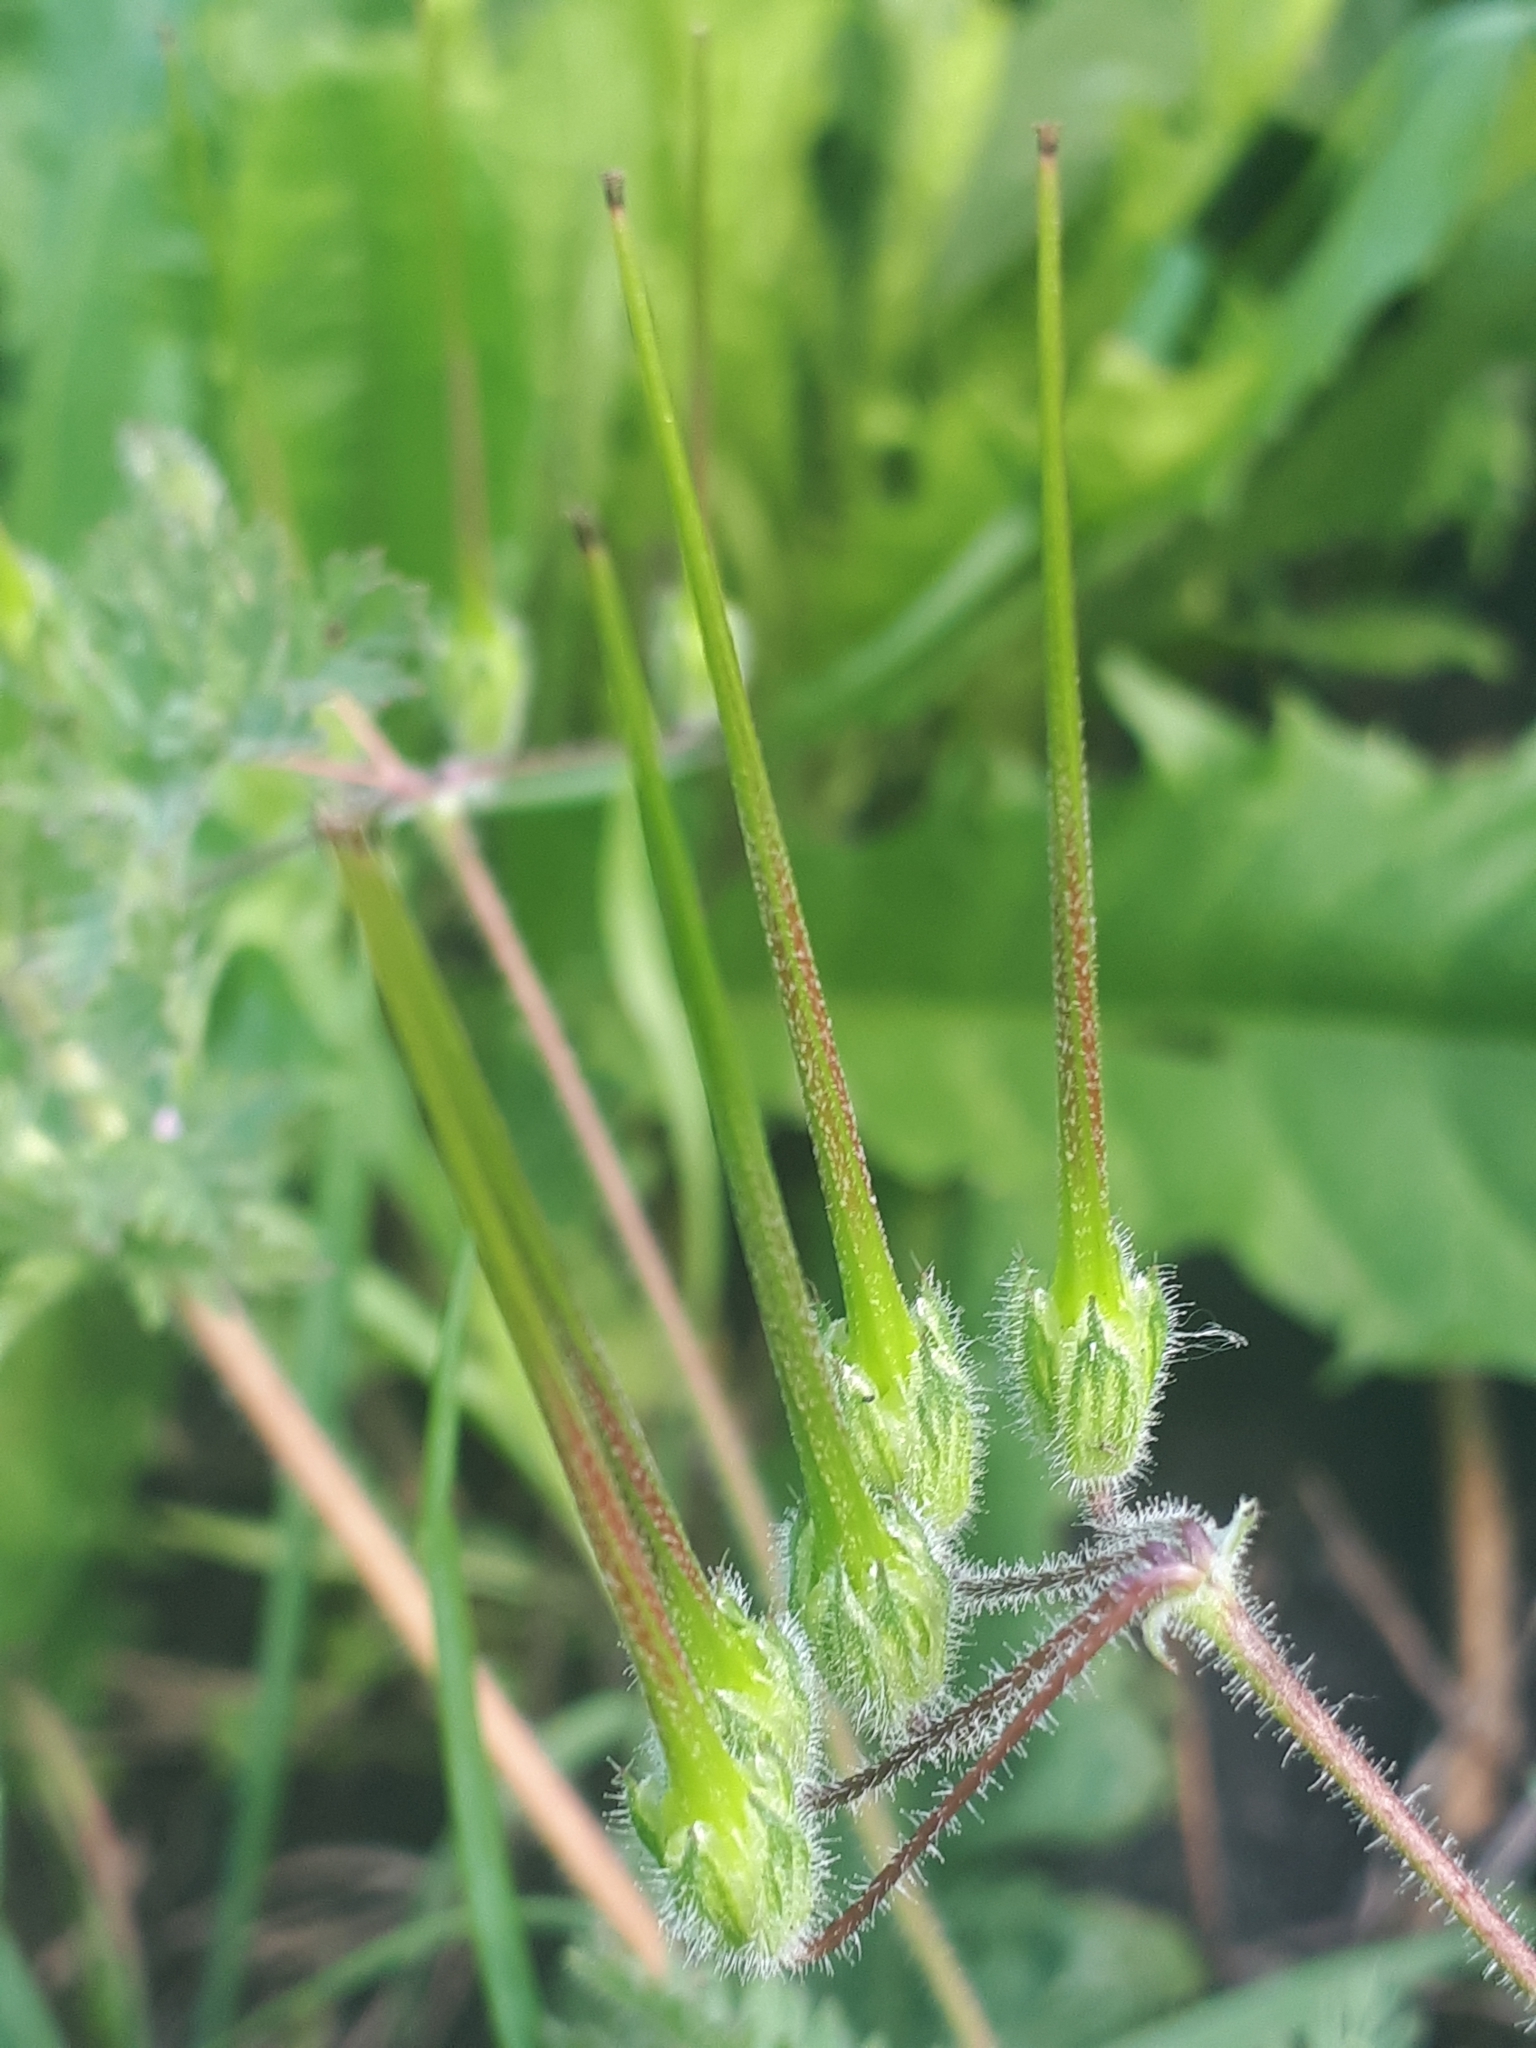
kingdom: Plantae
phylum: Tracheophyta
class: Magnoliopsida
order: Geraniales
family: Geraniaceae
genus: Erodium
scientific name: Erodium cicutarium
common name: Common stork's-bill
